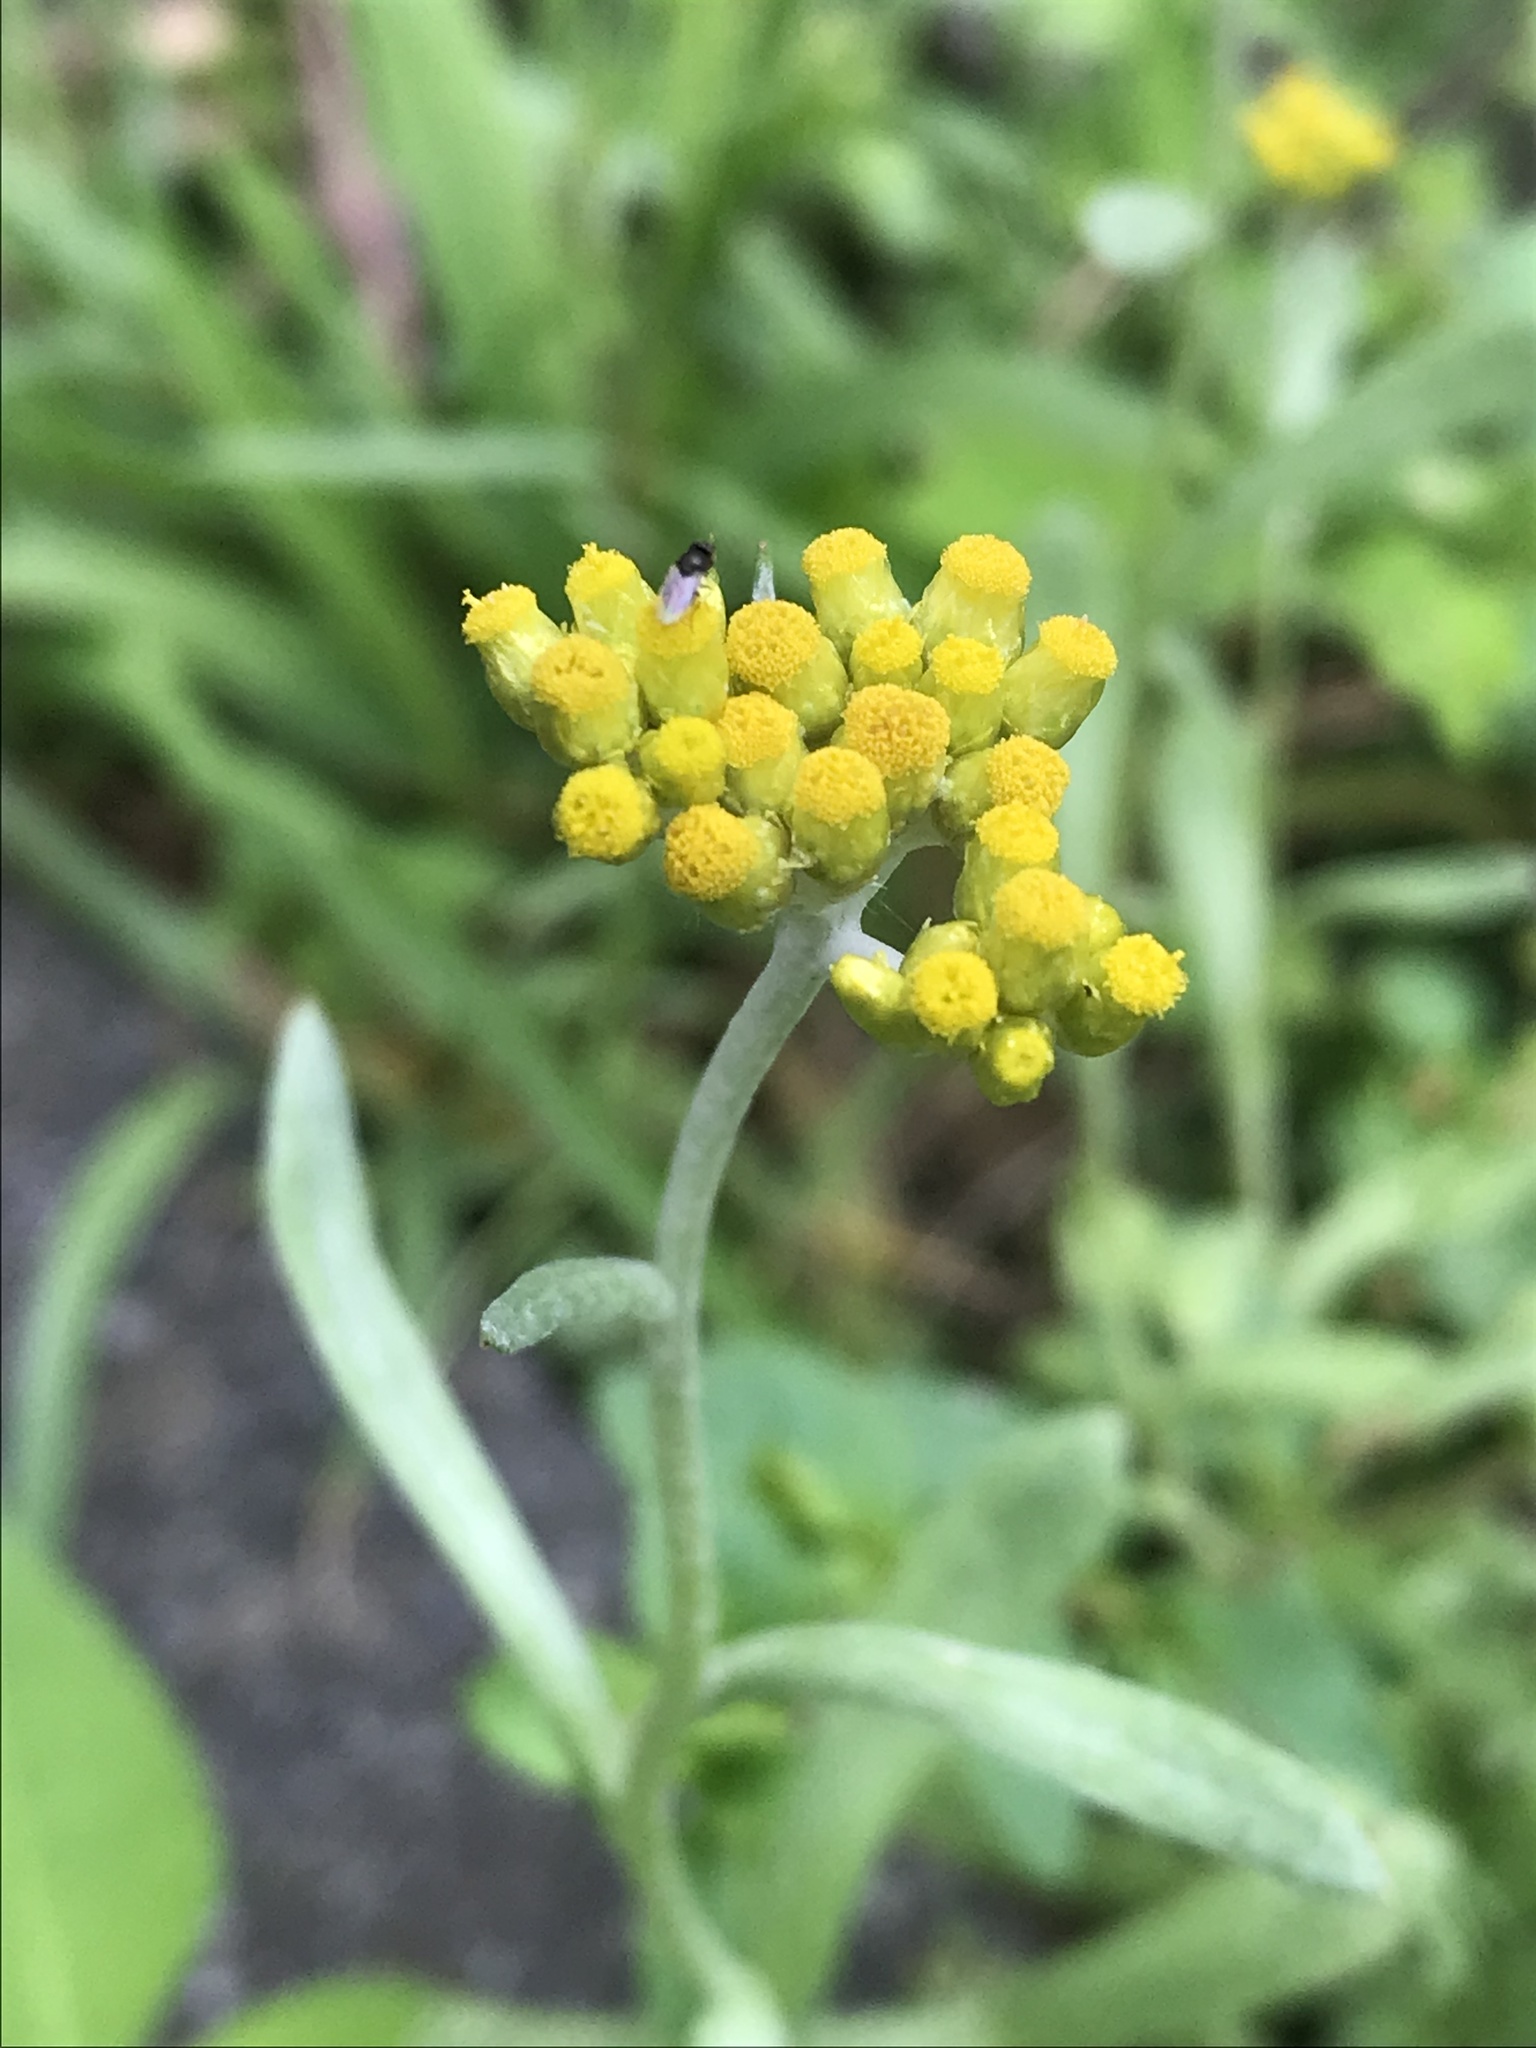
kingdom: Plantae
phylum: Tracheophyta
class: Magnoliopsida
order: Asterales
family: Asteraceae
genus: Pseudognaphalium
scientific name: Pseudognaphalium affine
